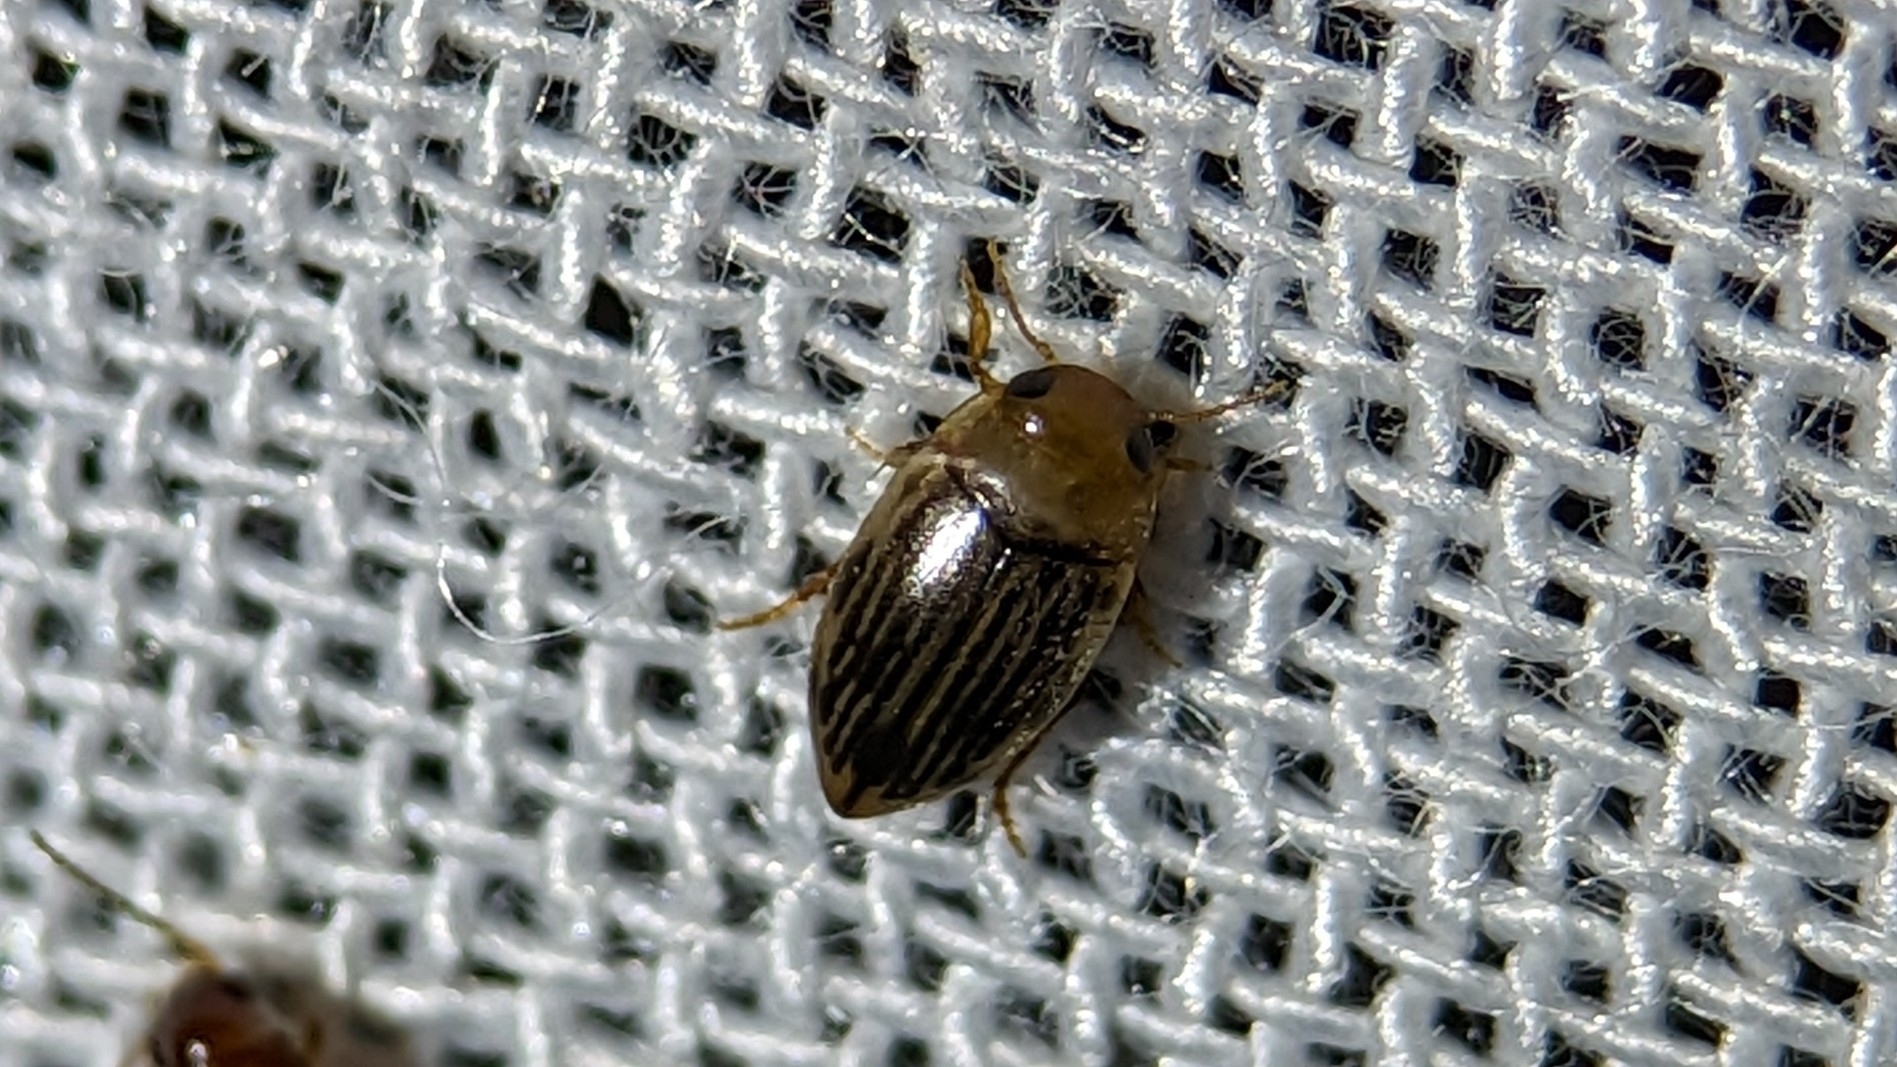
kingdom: Animalia
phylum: Arthropoda
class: Insecta
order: Coleoptera
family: Dytiscidae
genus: Neoporus
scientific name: Neoporus vittatipennis
